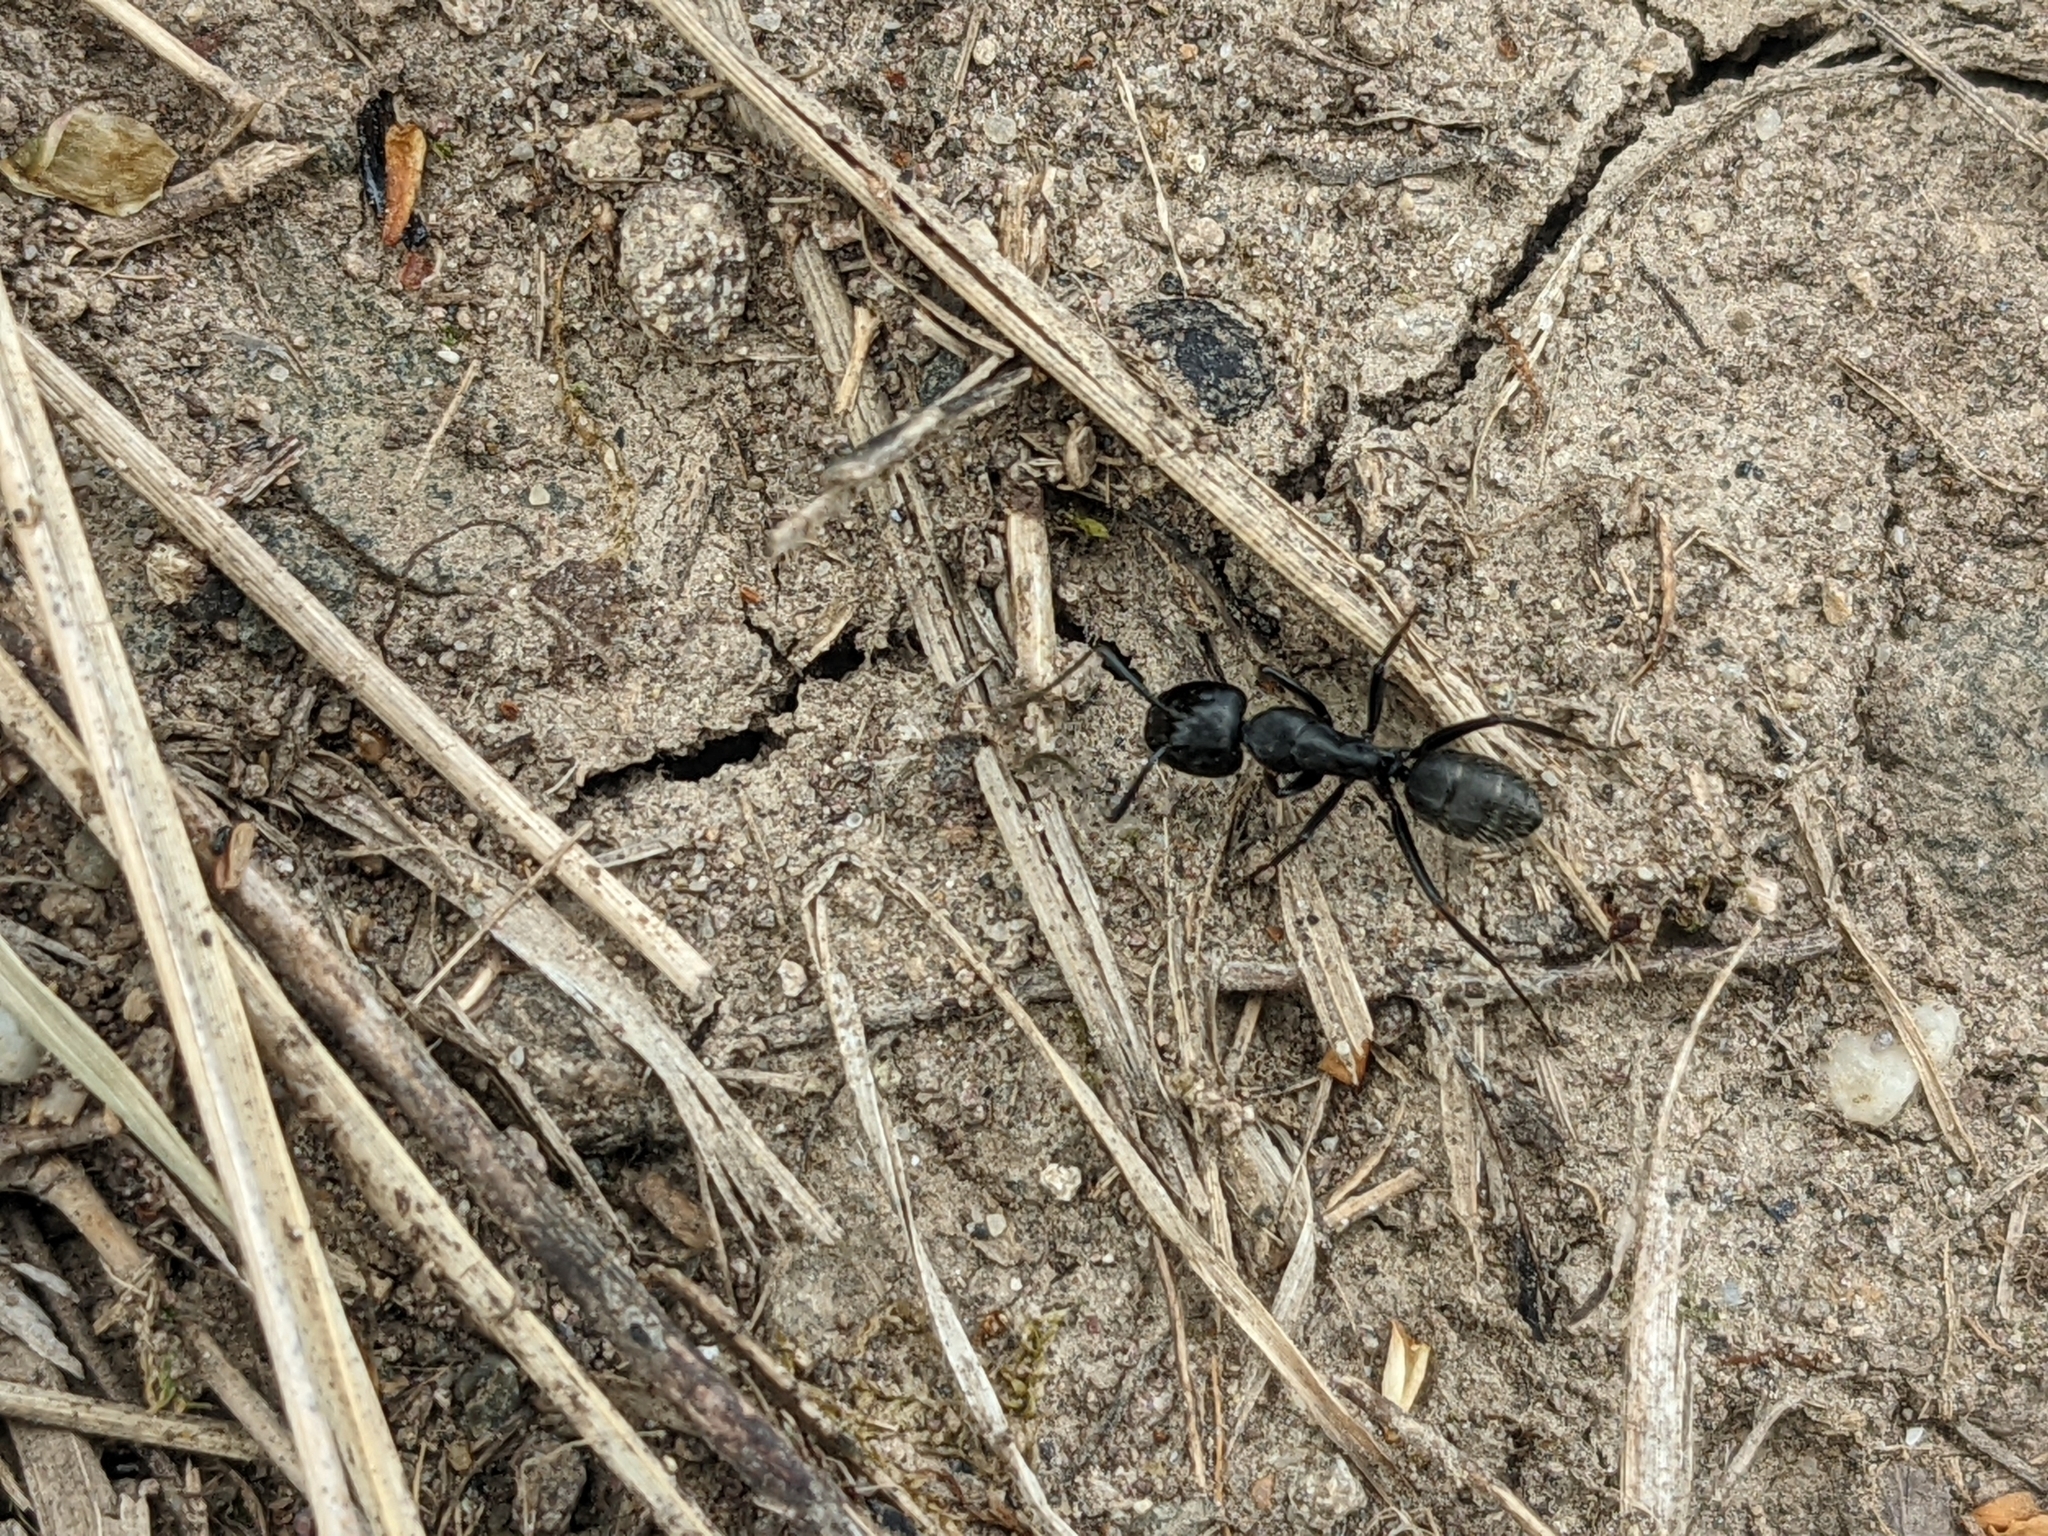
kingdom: Animalia
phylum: Arthropoda
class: Insecta
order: Hymenoptera
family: Formicidae
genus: Camponotus
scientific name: Camponotus vagus
